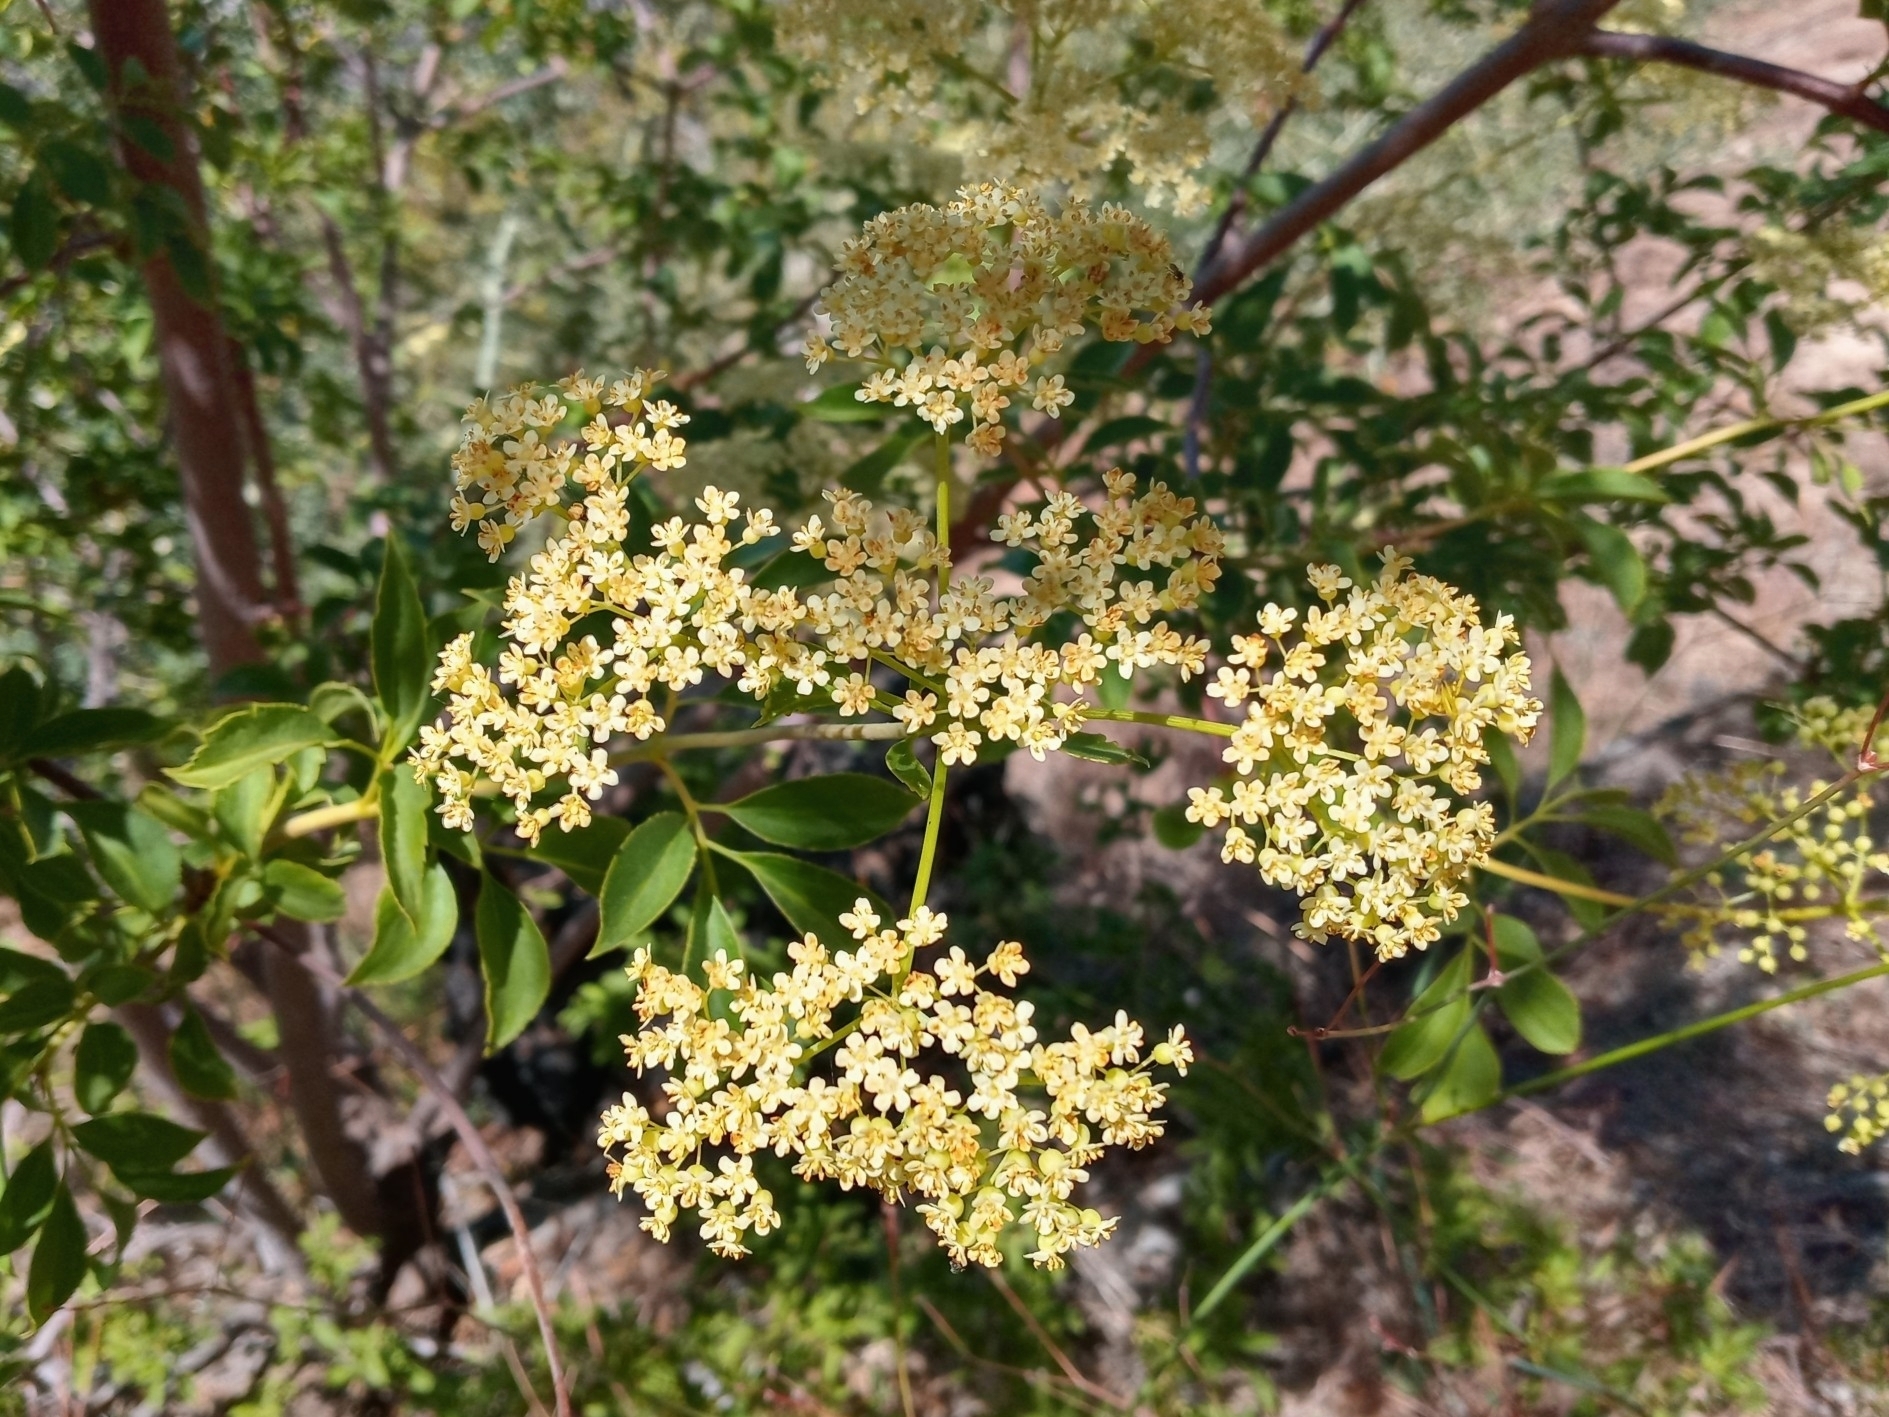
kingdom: Plantae
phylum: Tracheophyta
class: Magnoliopsida
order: Dipsacales
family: Viburnaceae
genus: Sambucus
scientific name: Sambucus cerulea
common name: Blue elder
